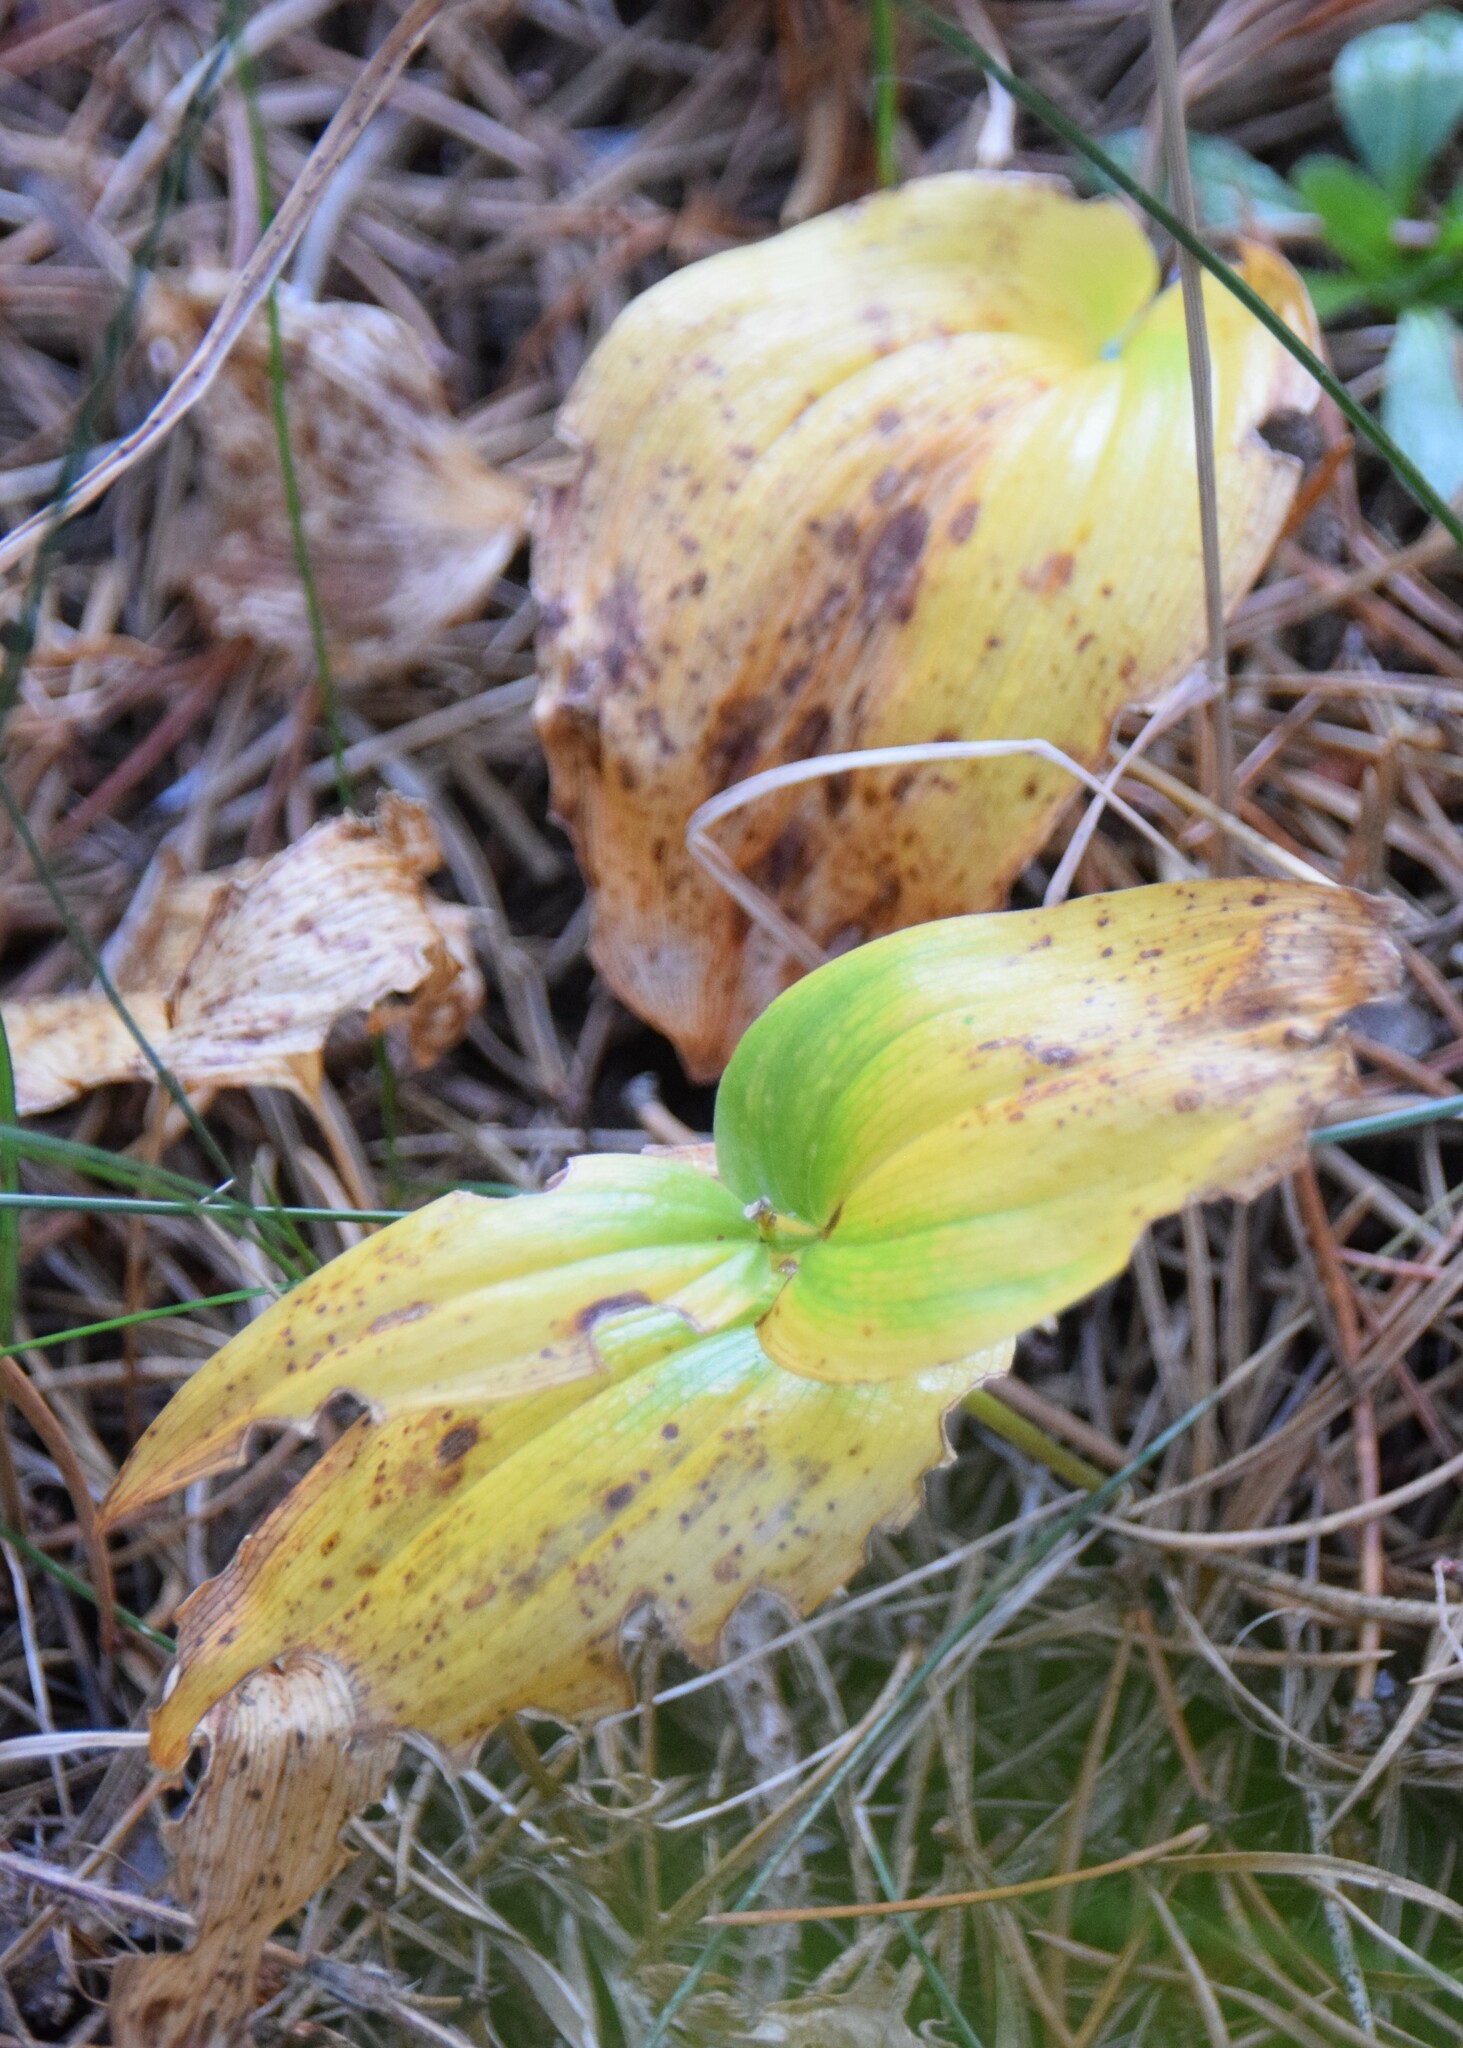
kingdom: Plantae
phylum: Tracheophyta
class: Liliopsida
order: Asparagales
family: Asparagaceae
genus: Maianthemum
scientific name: Maianthemum canadense
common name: False lily-of-the-valley
